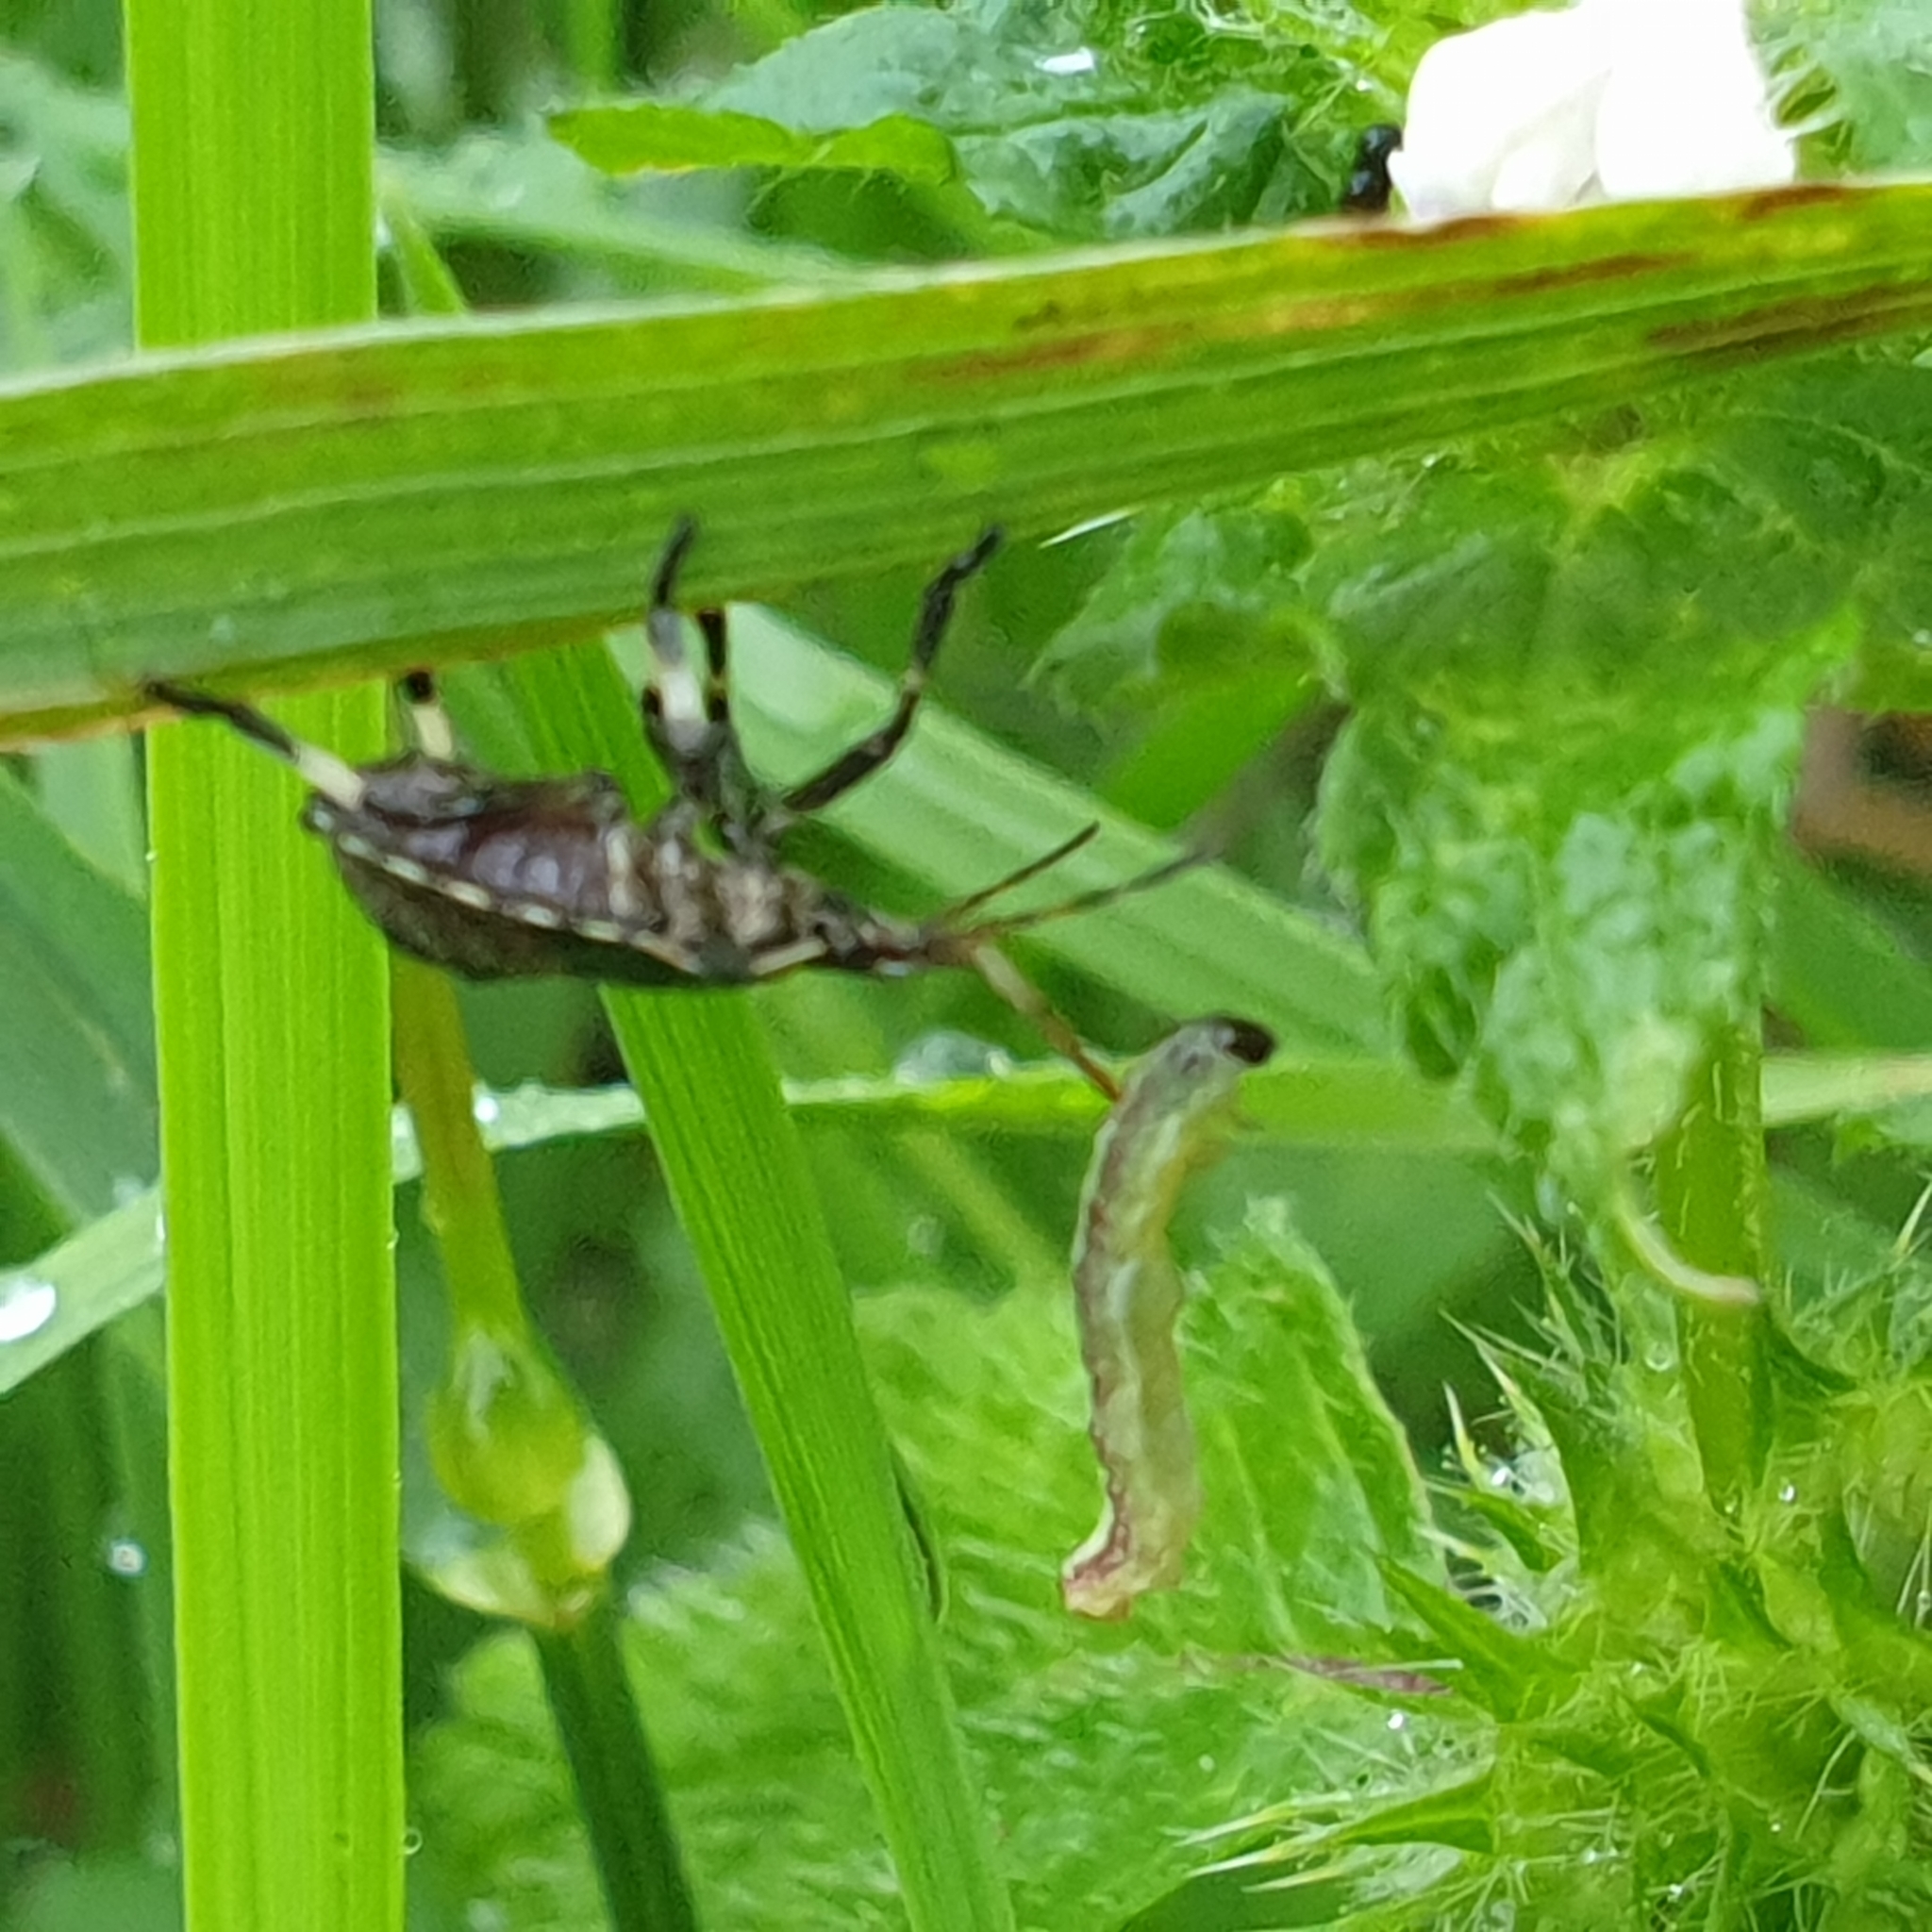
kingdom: Animalia
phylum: Arthropoda
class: Insecta
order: Hemiptera
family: Pentatomidae
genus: Picromerus
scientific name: Picromerus bidens
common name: Spiked shieldbug
